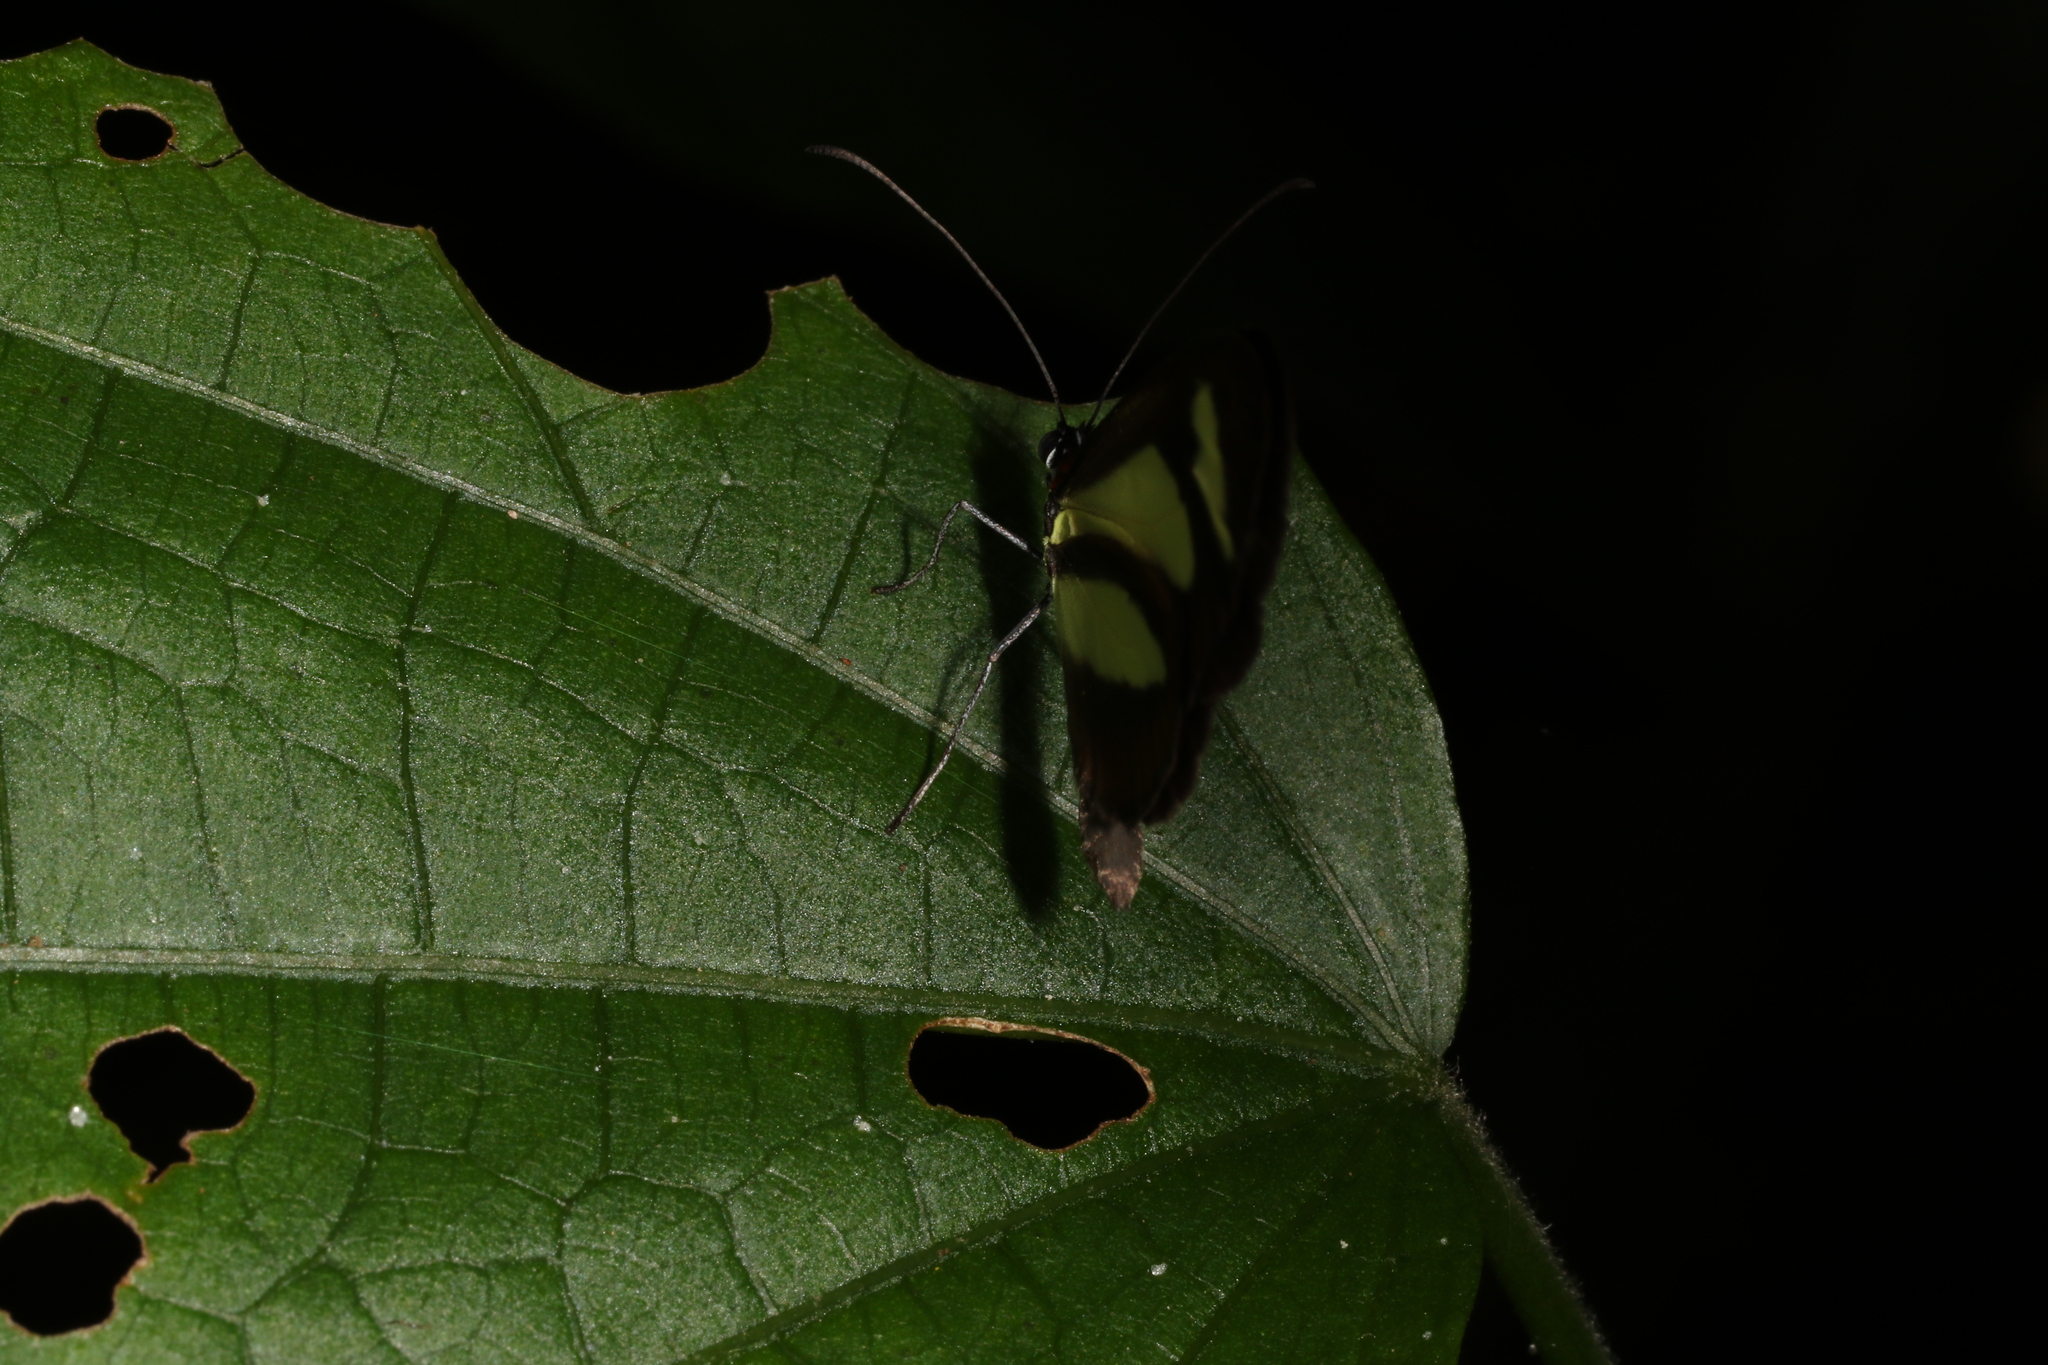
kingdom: Animalia
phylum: Arthropoda
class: Insecta
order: Lepidoptera
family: Nymphalidae
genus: Aeria
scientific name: Aeria olena
